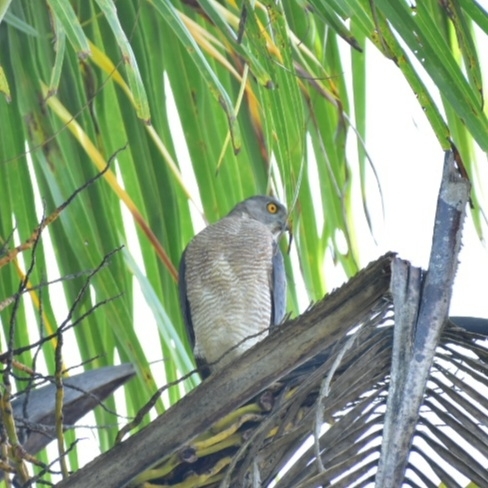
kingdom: Animalia
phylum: Chordata
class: Aves
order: Accipitriformes
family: Accipitridae
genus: Accipiter
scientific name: Accipiter badius
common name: Shikra
